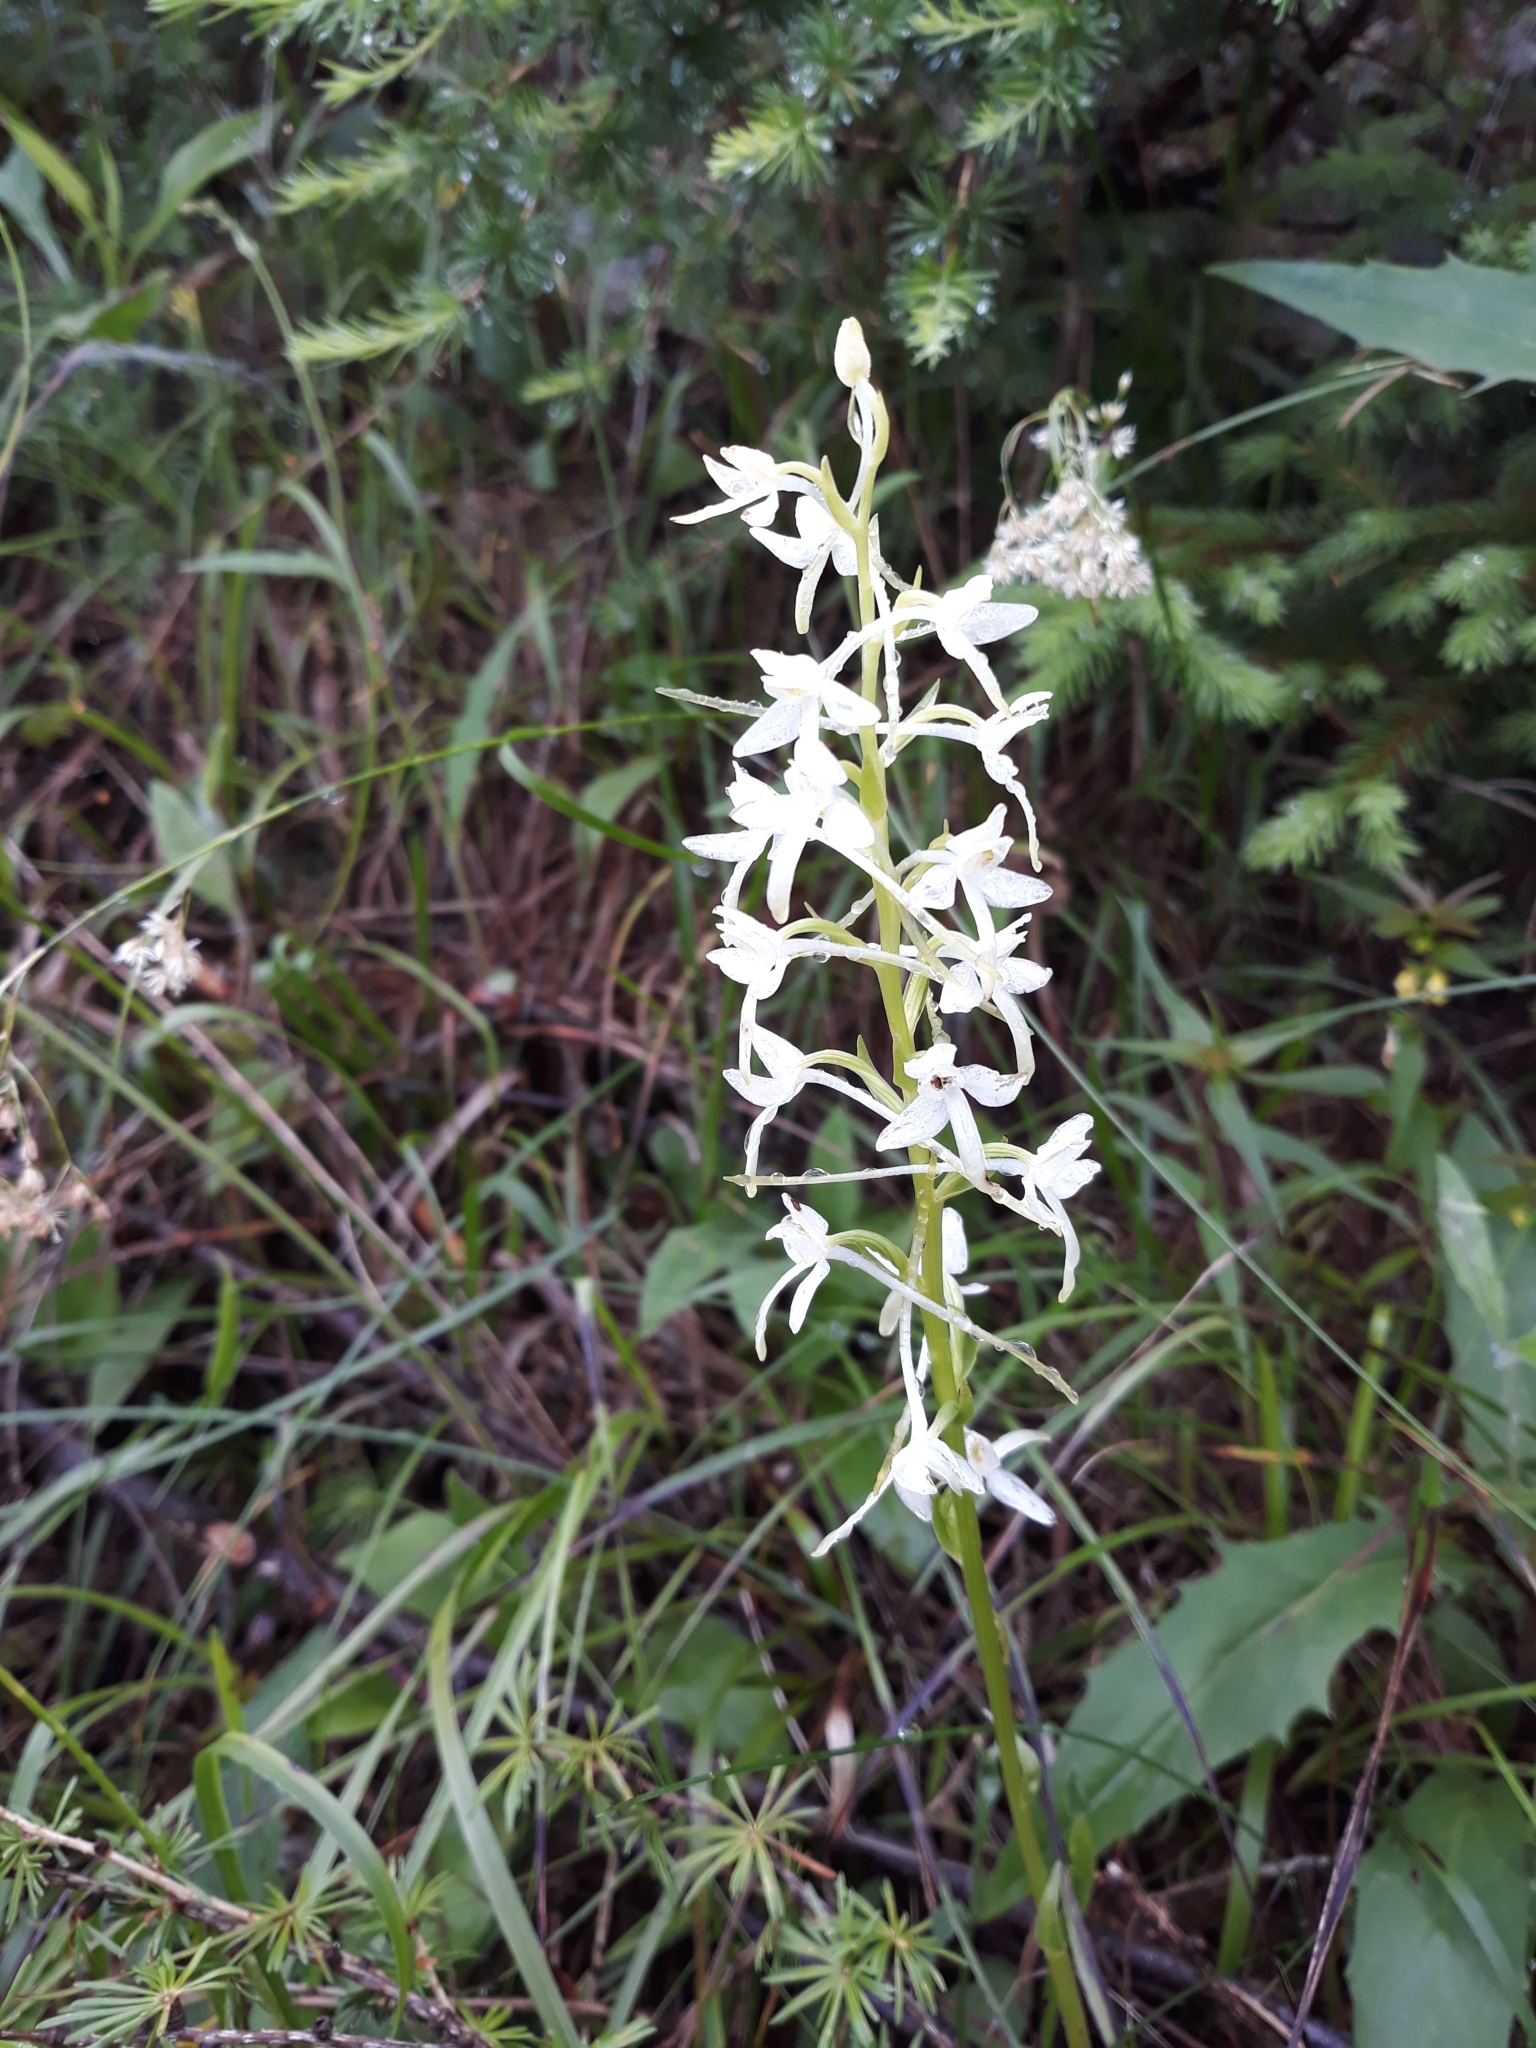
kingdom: Plantae
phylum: Tracheophyta
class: Liliopsida
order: Asparagales
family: Orchidaceae
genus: Platanthera
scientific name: Platanthera bifolia
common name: Lesser butterfly-orchid
